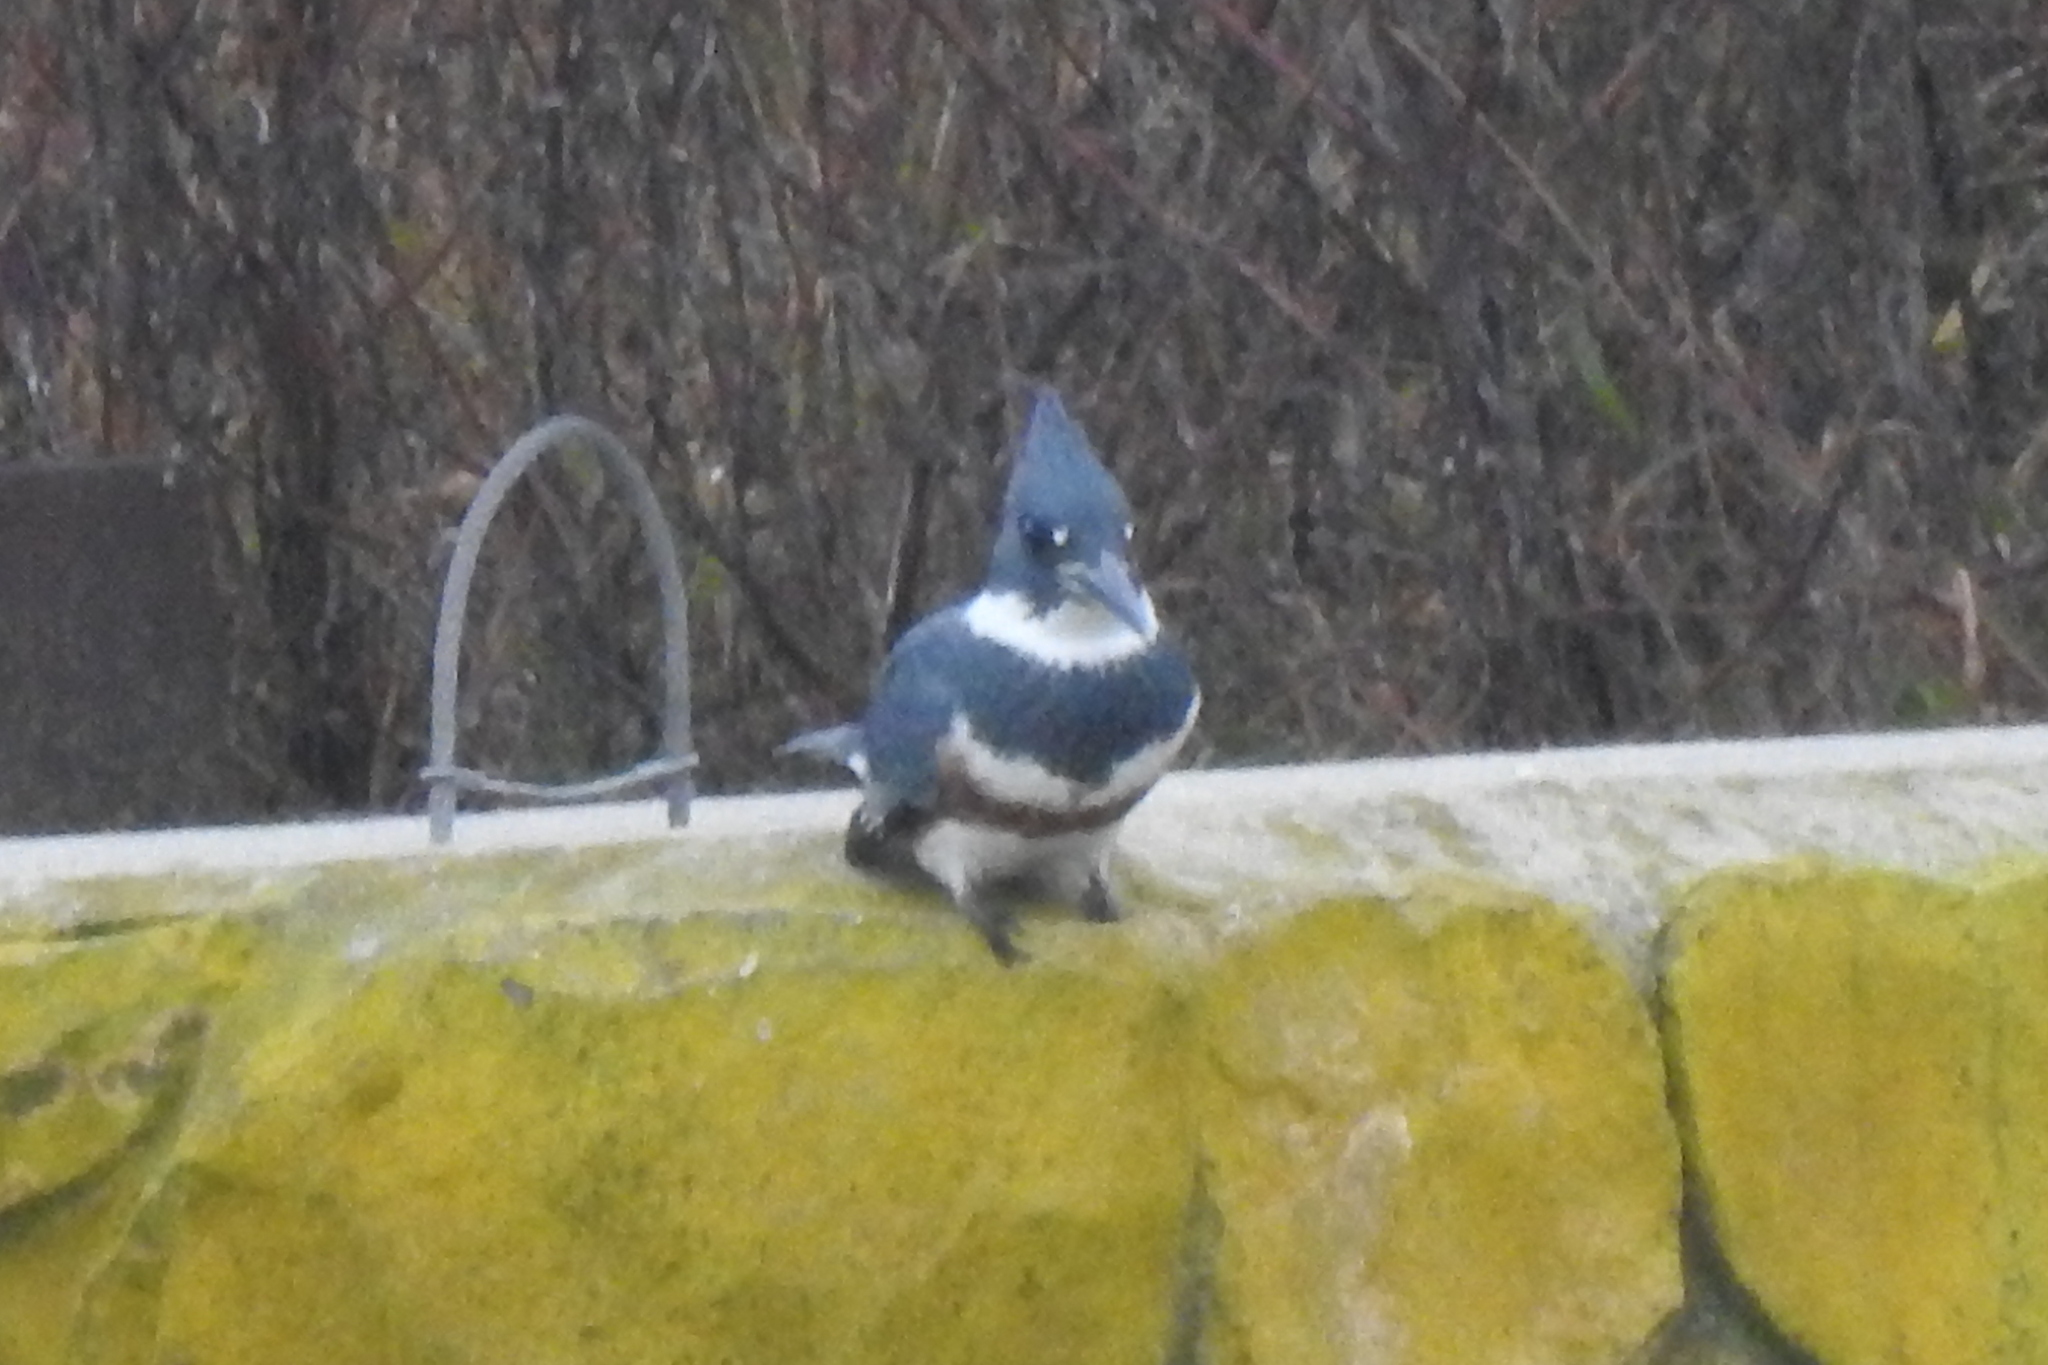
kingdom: Animalia
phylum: Chordata
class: Aves
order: Coraciiformes
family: Alcedinidae
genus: Megaceryle
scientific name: Megaceryle alcyon
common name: Belted kingfisher
